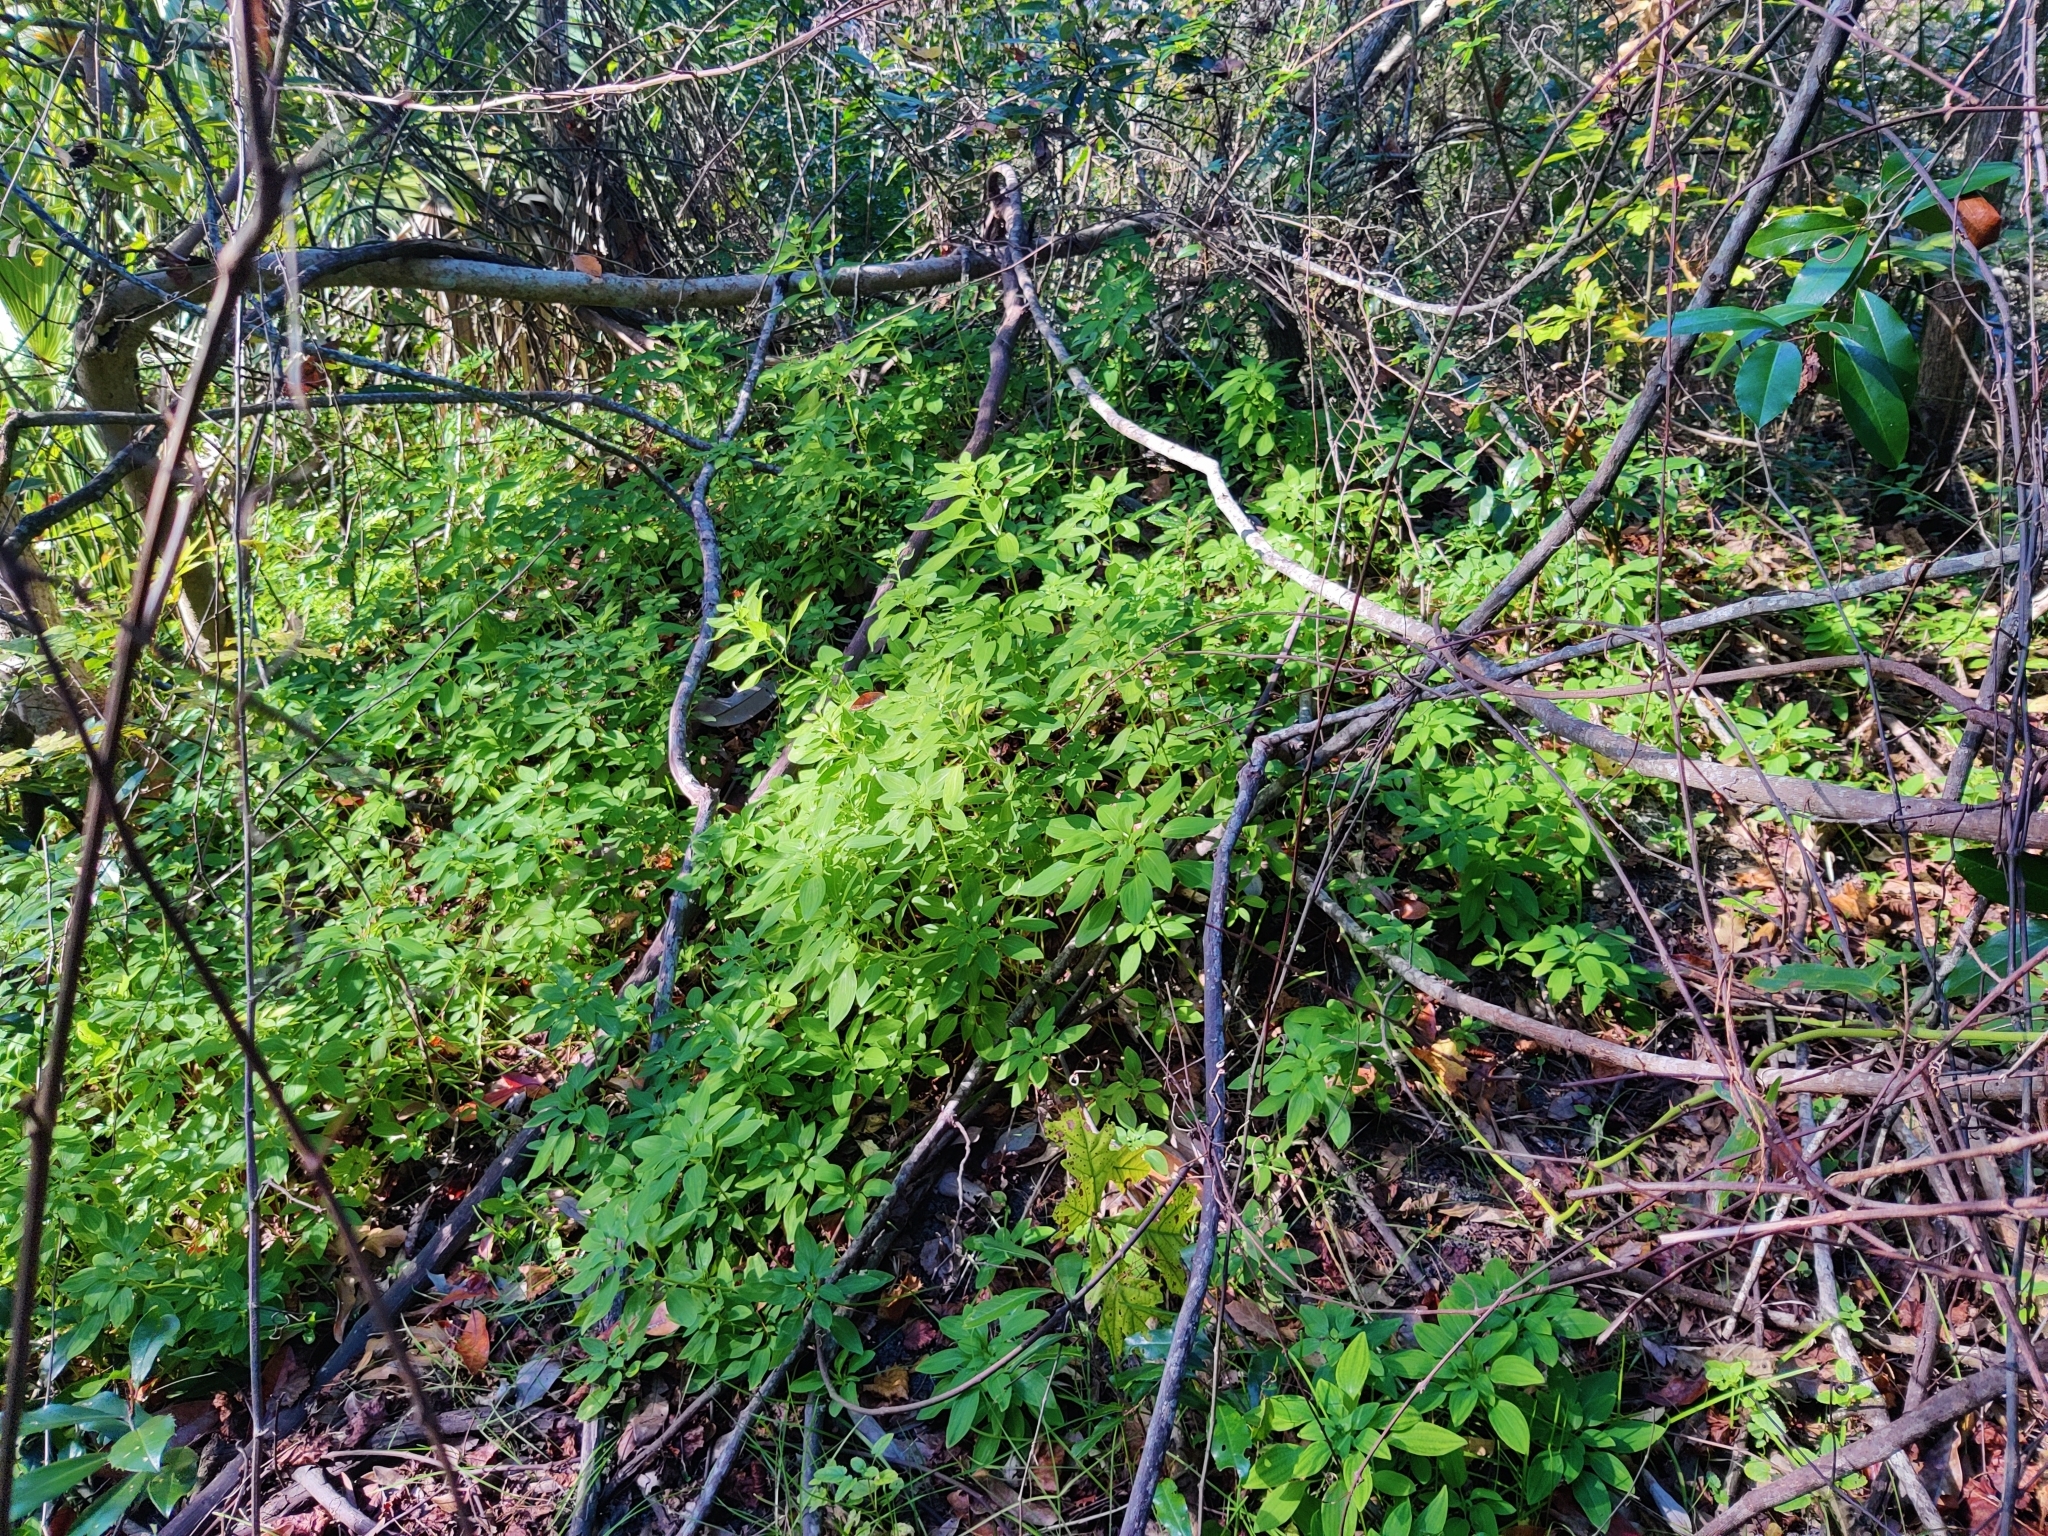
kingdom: Plantae
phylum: Tracheophyta
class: Liliopsida
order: Liliales
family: Alstroemeriaceae
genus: Alstroemeria
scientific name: Alstroemeria psittacina
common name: Peruvian-lily
